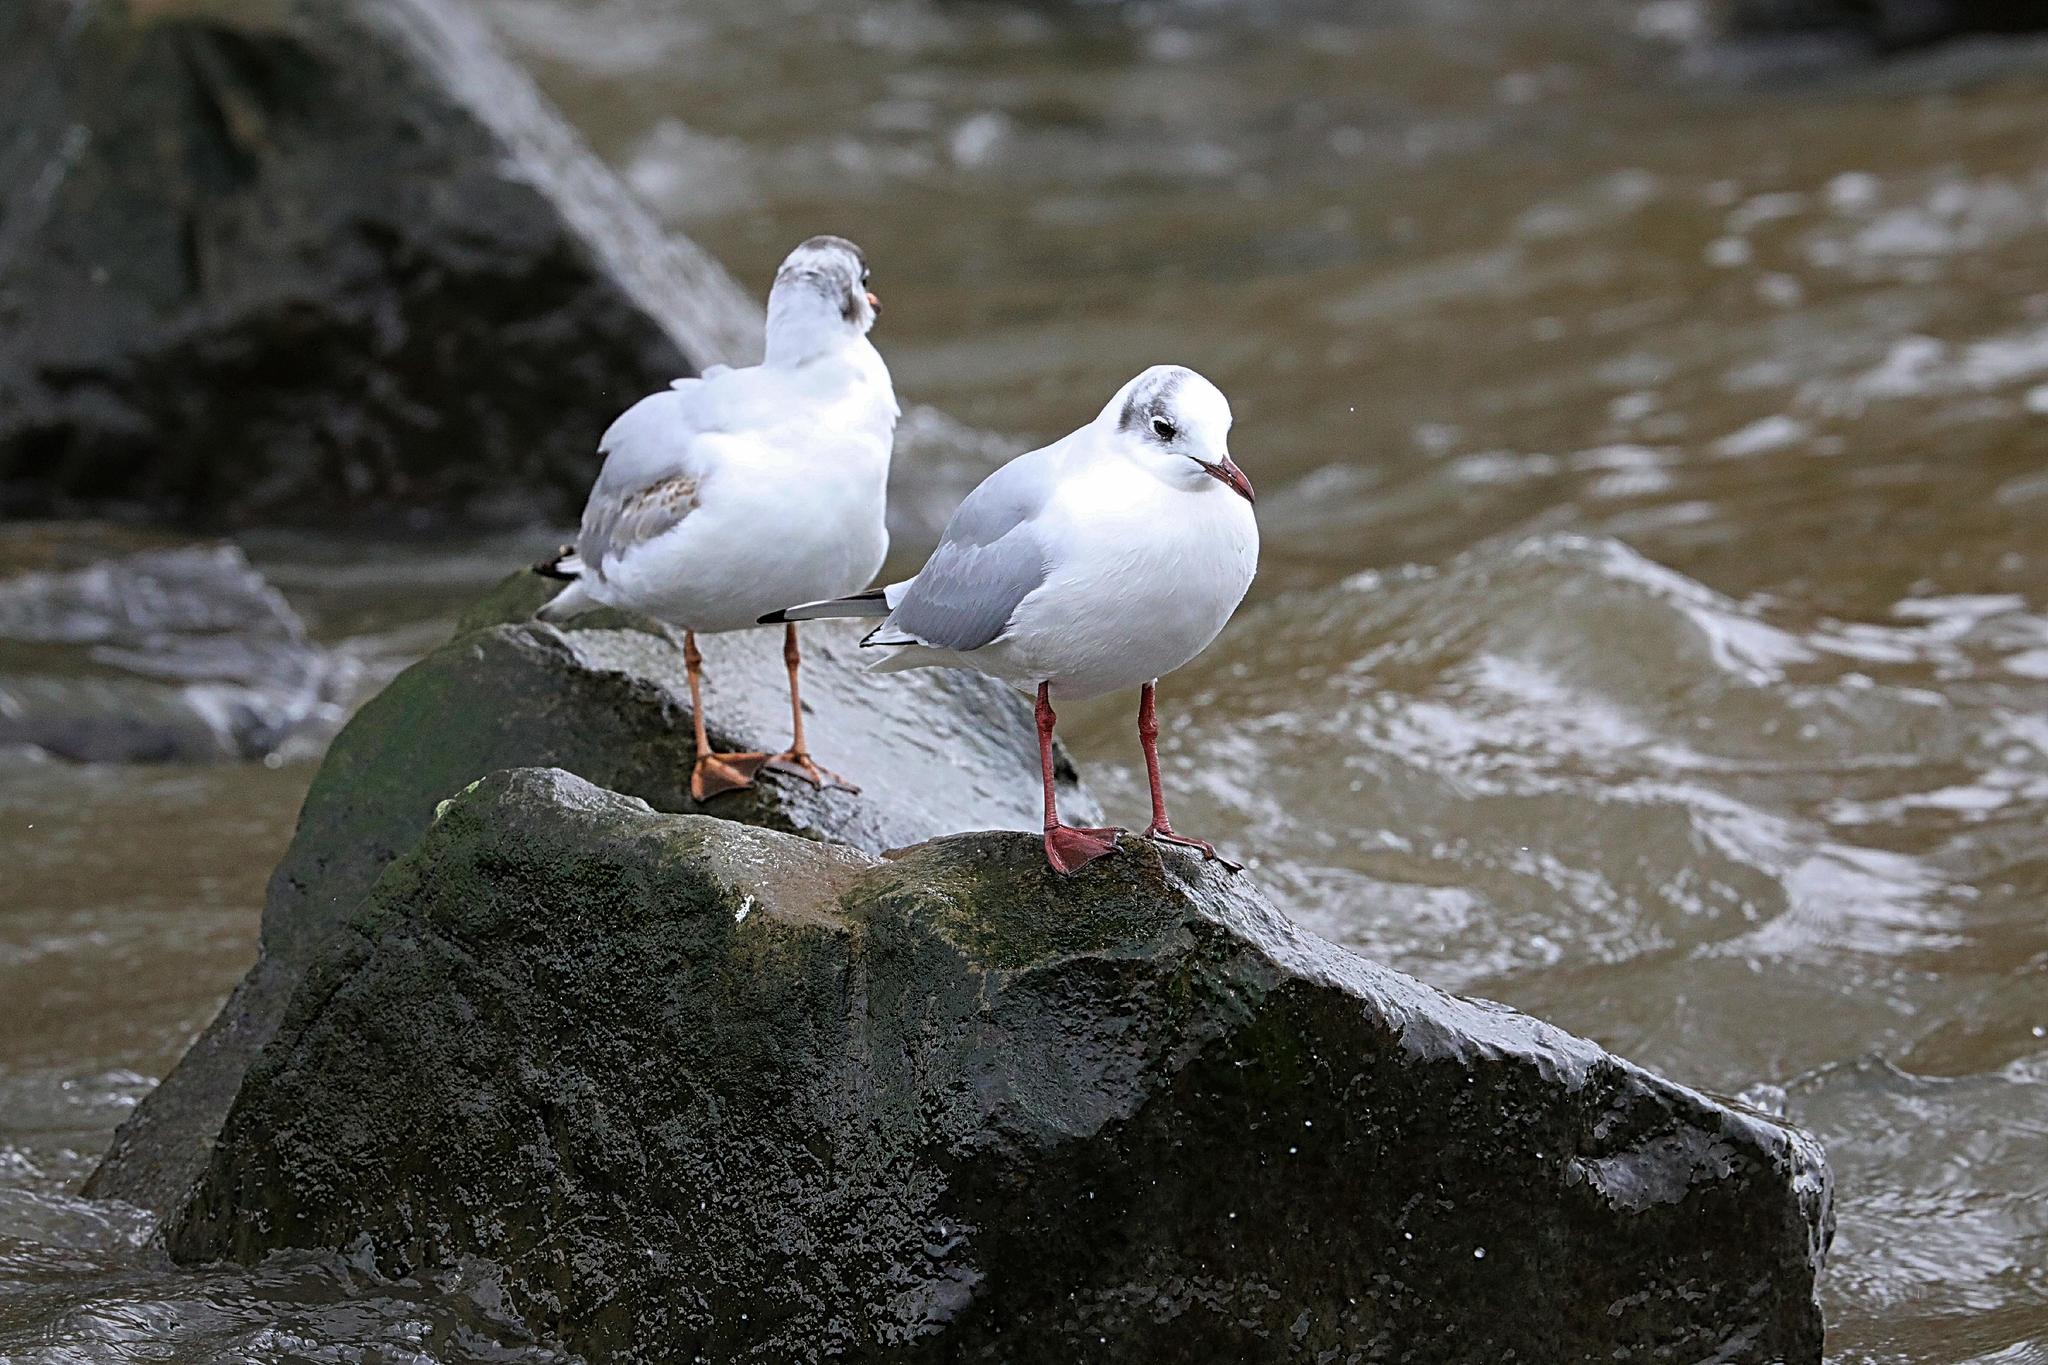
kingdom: Animalia
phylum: Chordata
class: Aves
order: Charadriiformes
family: Laridae
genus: Chroicocephalus
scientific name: Chroicocephalus ridibundus
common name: Black-headed gull
